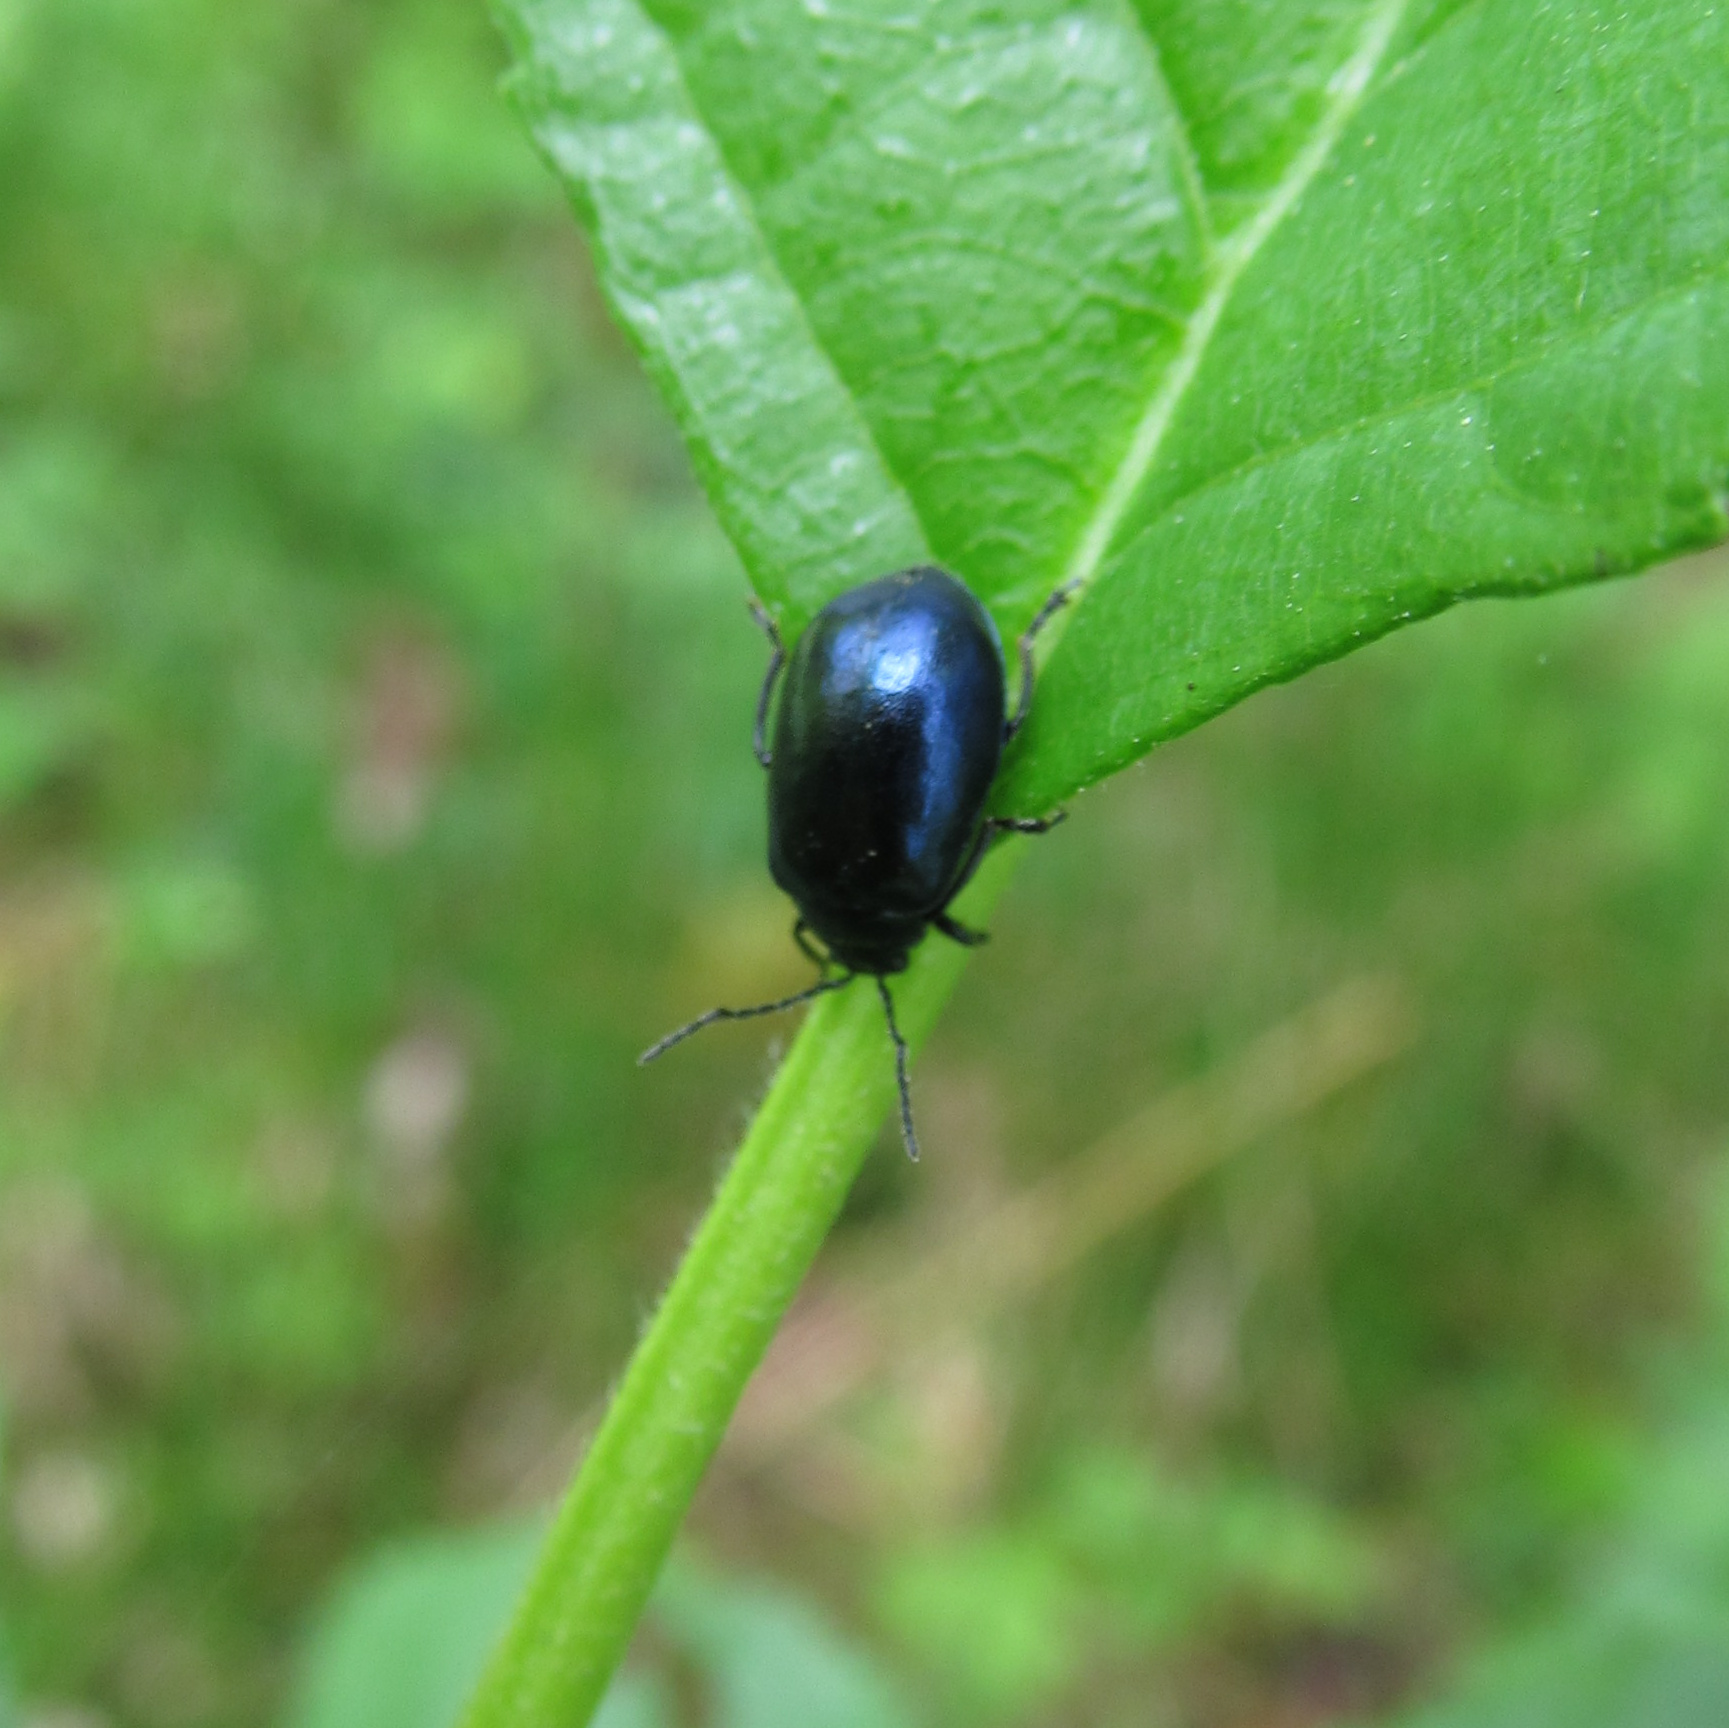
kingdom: Animalia
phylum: Arthropoda
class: Insecta
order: Coleoptera
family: Chrysomelidae
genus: Agelastica
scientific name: Agelastica alni
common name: Alder leaf beetle
